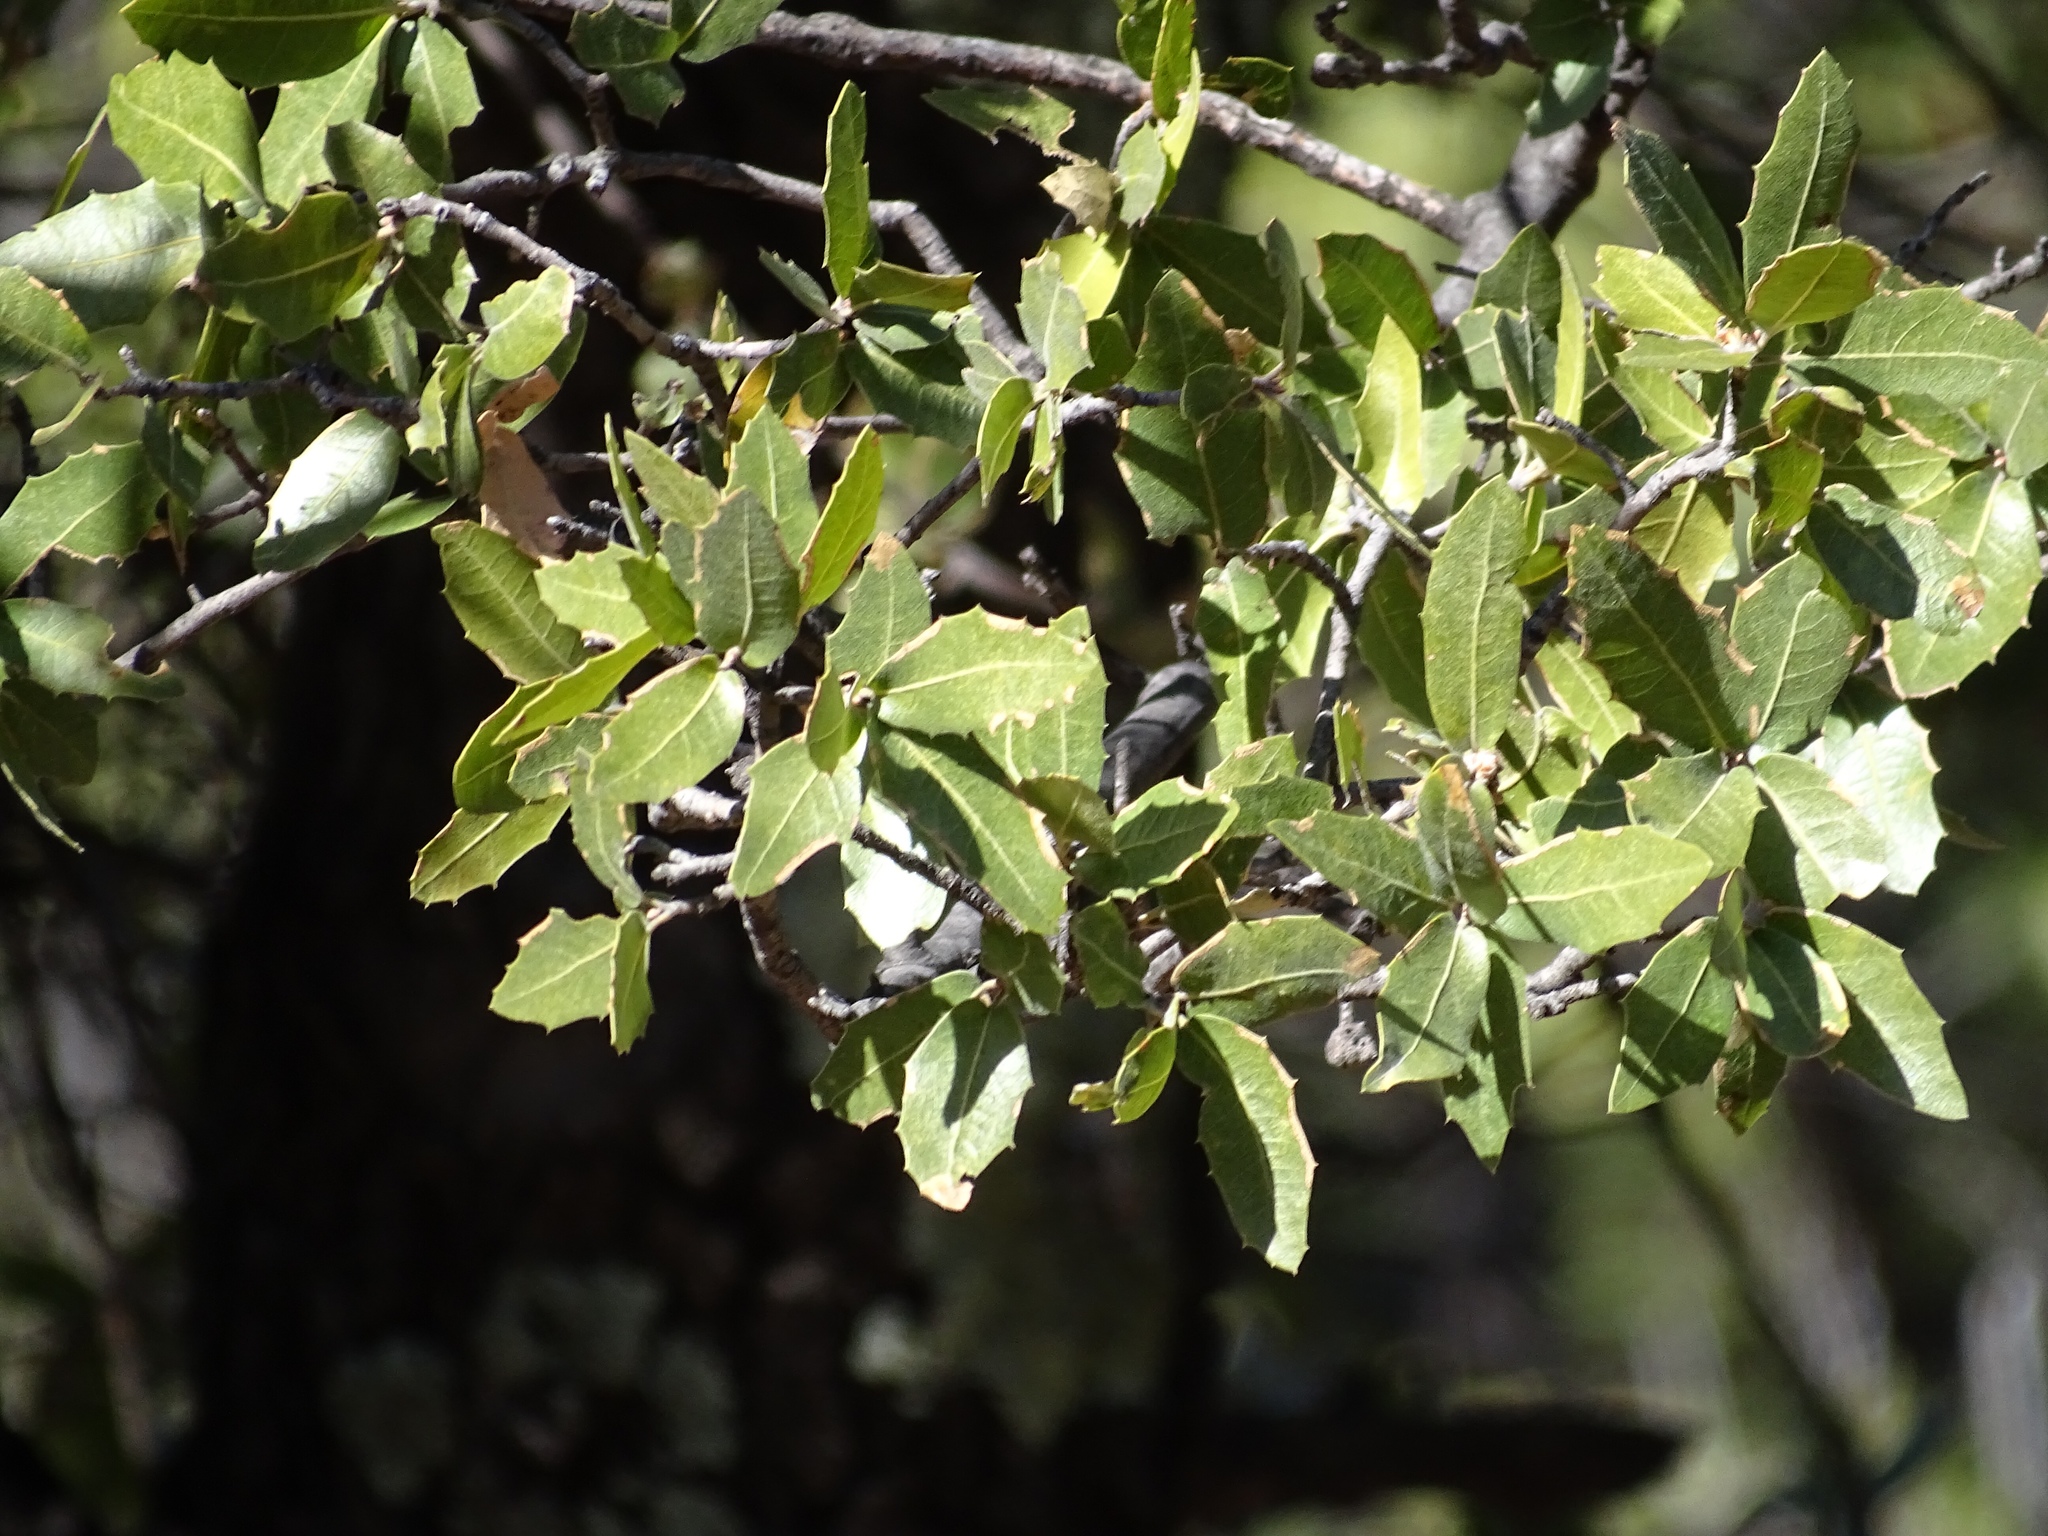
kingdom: Plantae
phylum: Tracheophyta
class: Magnoliopsida
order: Fagales
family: Fagaceae
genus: Quercus
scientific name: Quercus emoryi
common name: Emory oak
